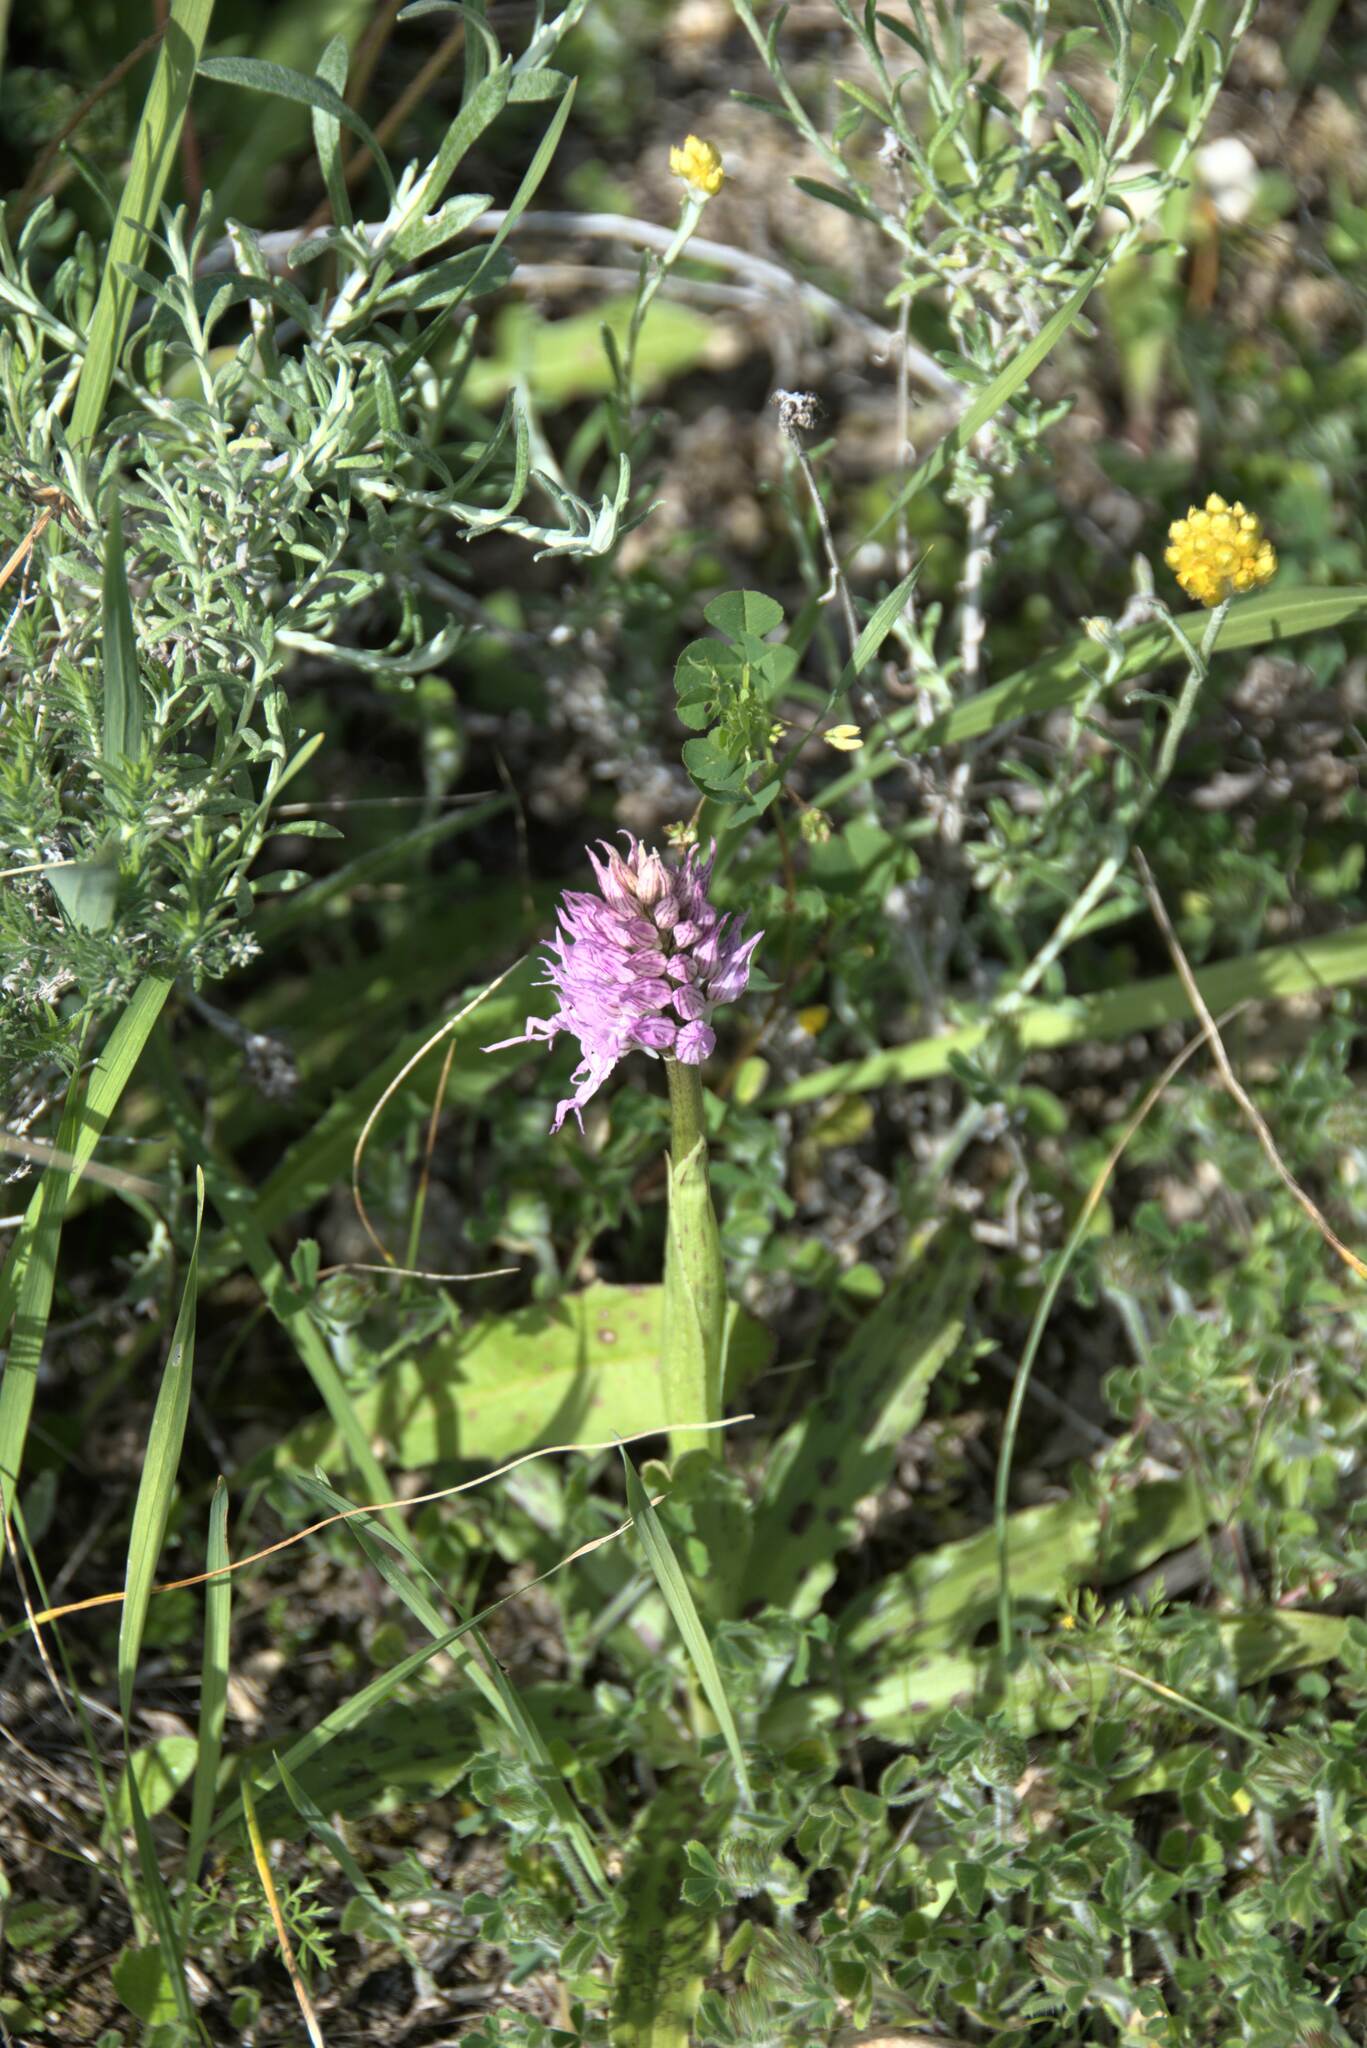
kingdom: Plantae
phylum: Tracheophyta
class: Liliopsida
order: Asparagales
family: Orchidaceae
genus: Orchis
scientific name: Orchis italica
